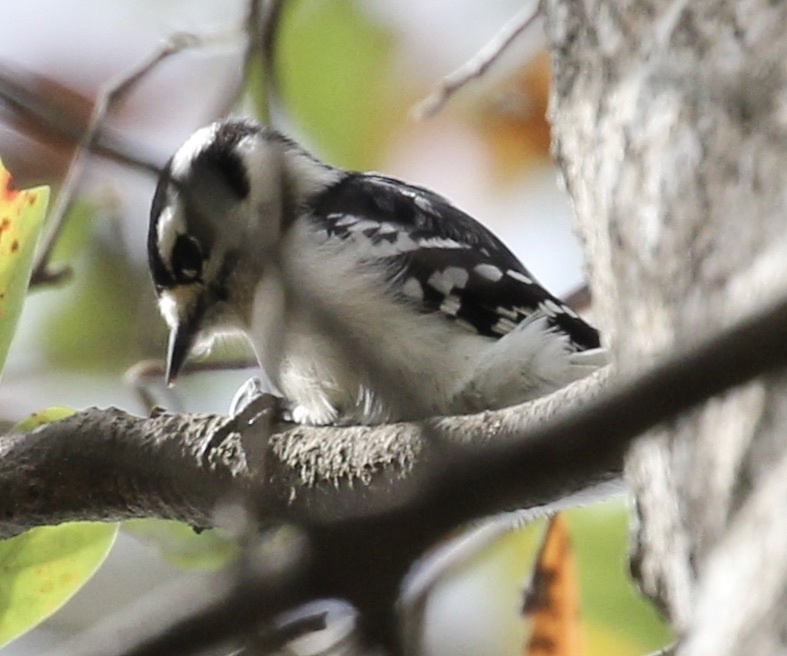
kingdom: Animalia
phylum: Chordata
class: Aves
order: Piciformes
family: Picidae
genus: Dryobates
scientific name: Dryobates pubescens
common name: Downy woodpecker
